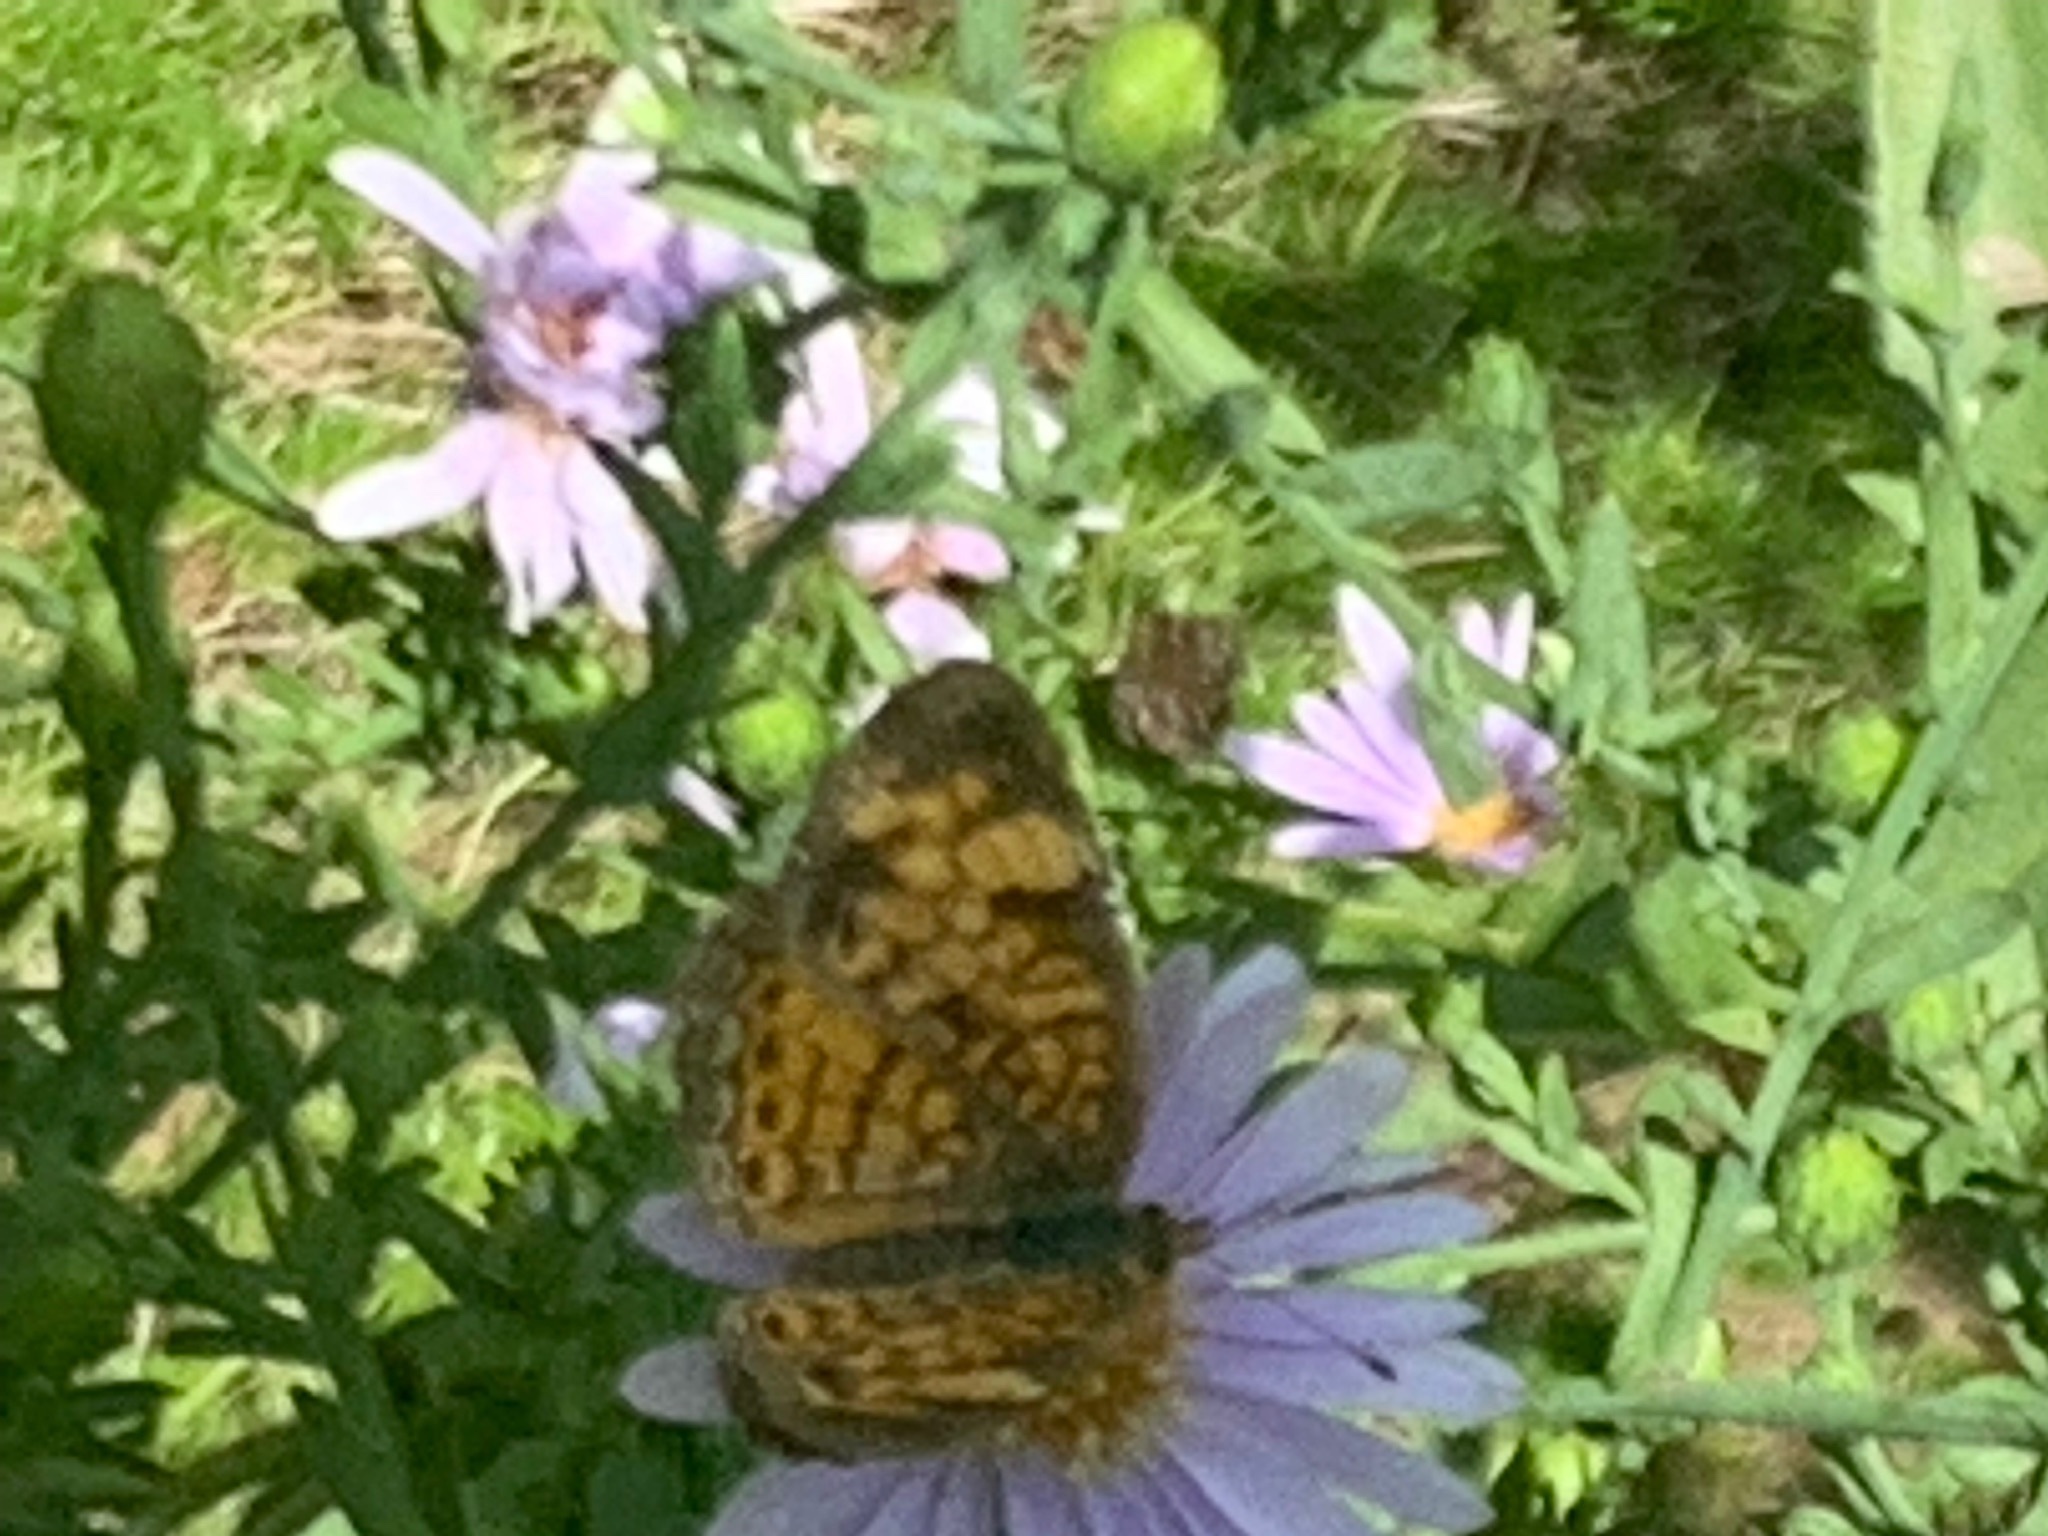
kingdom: Animalia
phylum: Arthropoda
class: Insecta
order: Lepidoptera
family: Nymphalidae
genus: Phyciodes
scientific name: Phyciodes tharos
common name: Pearl crescent
